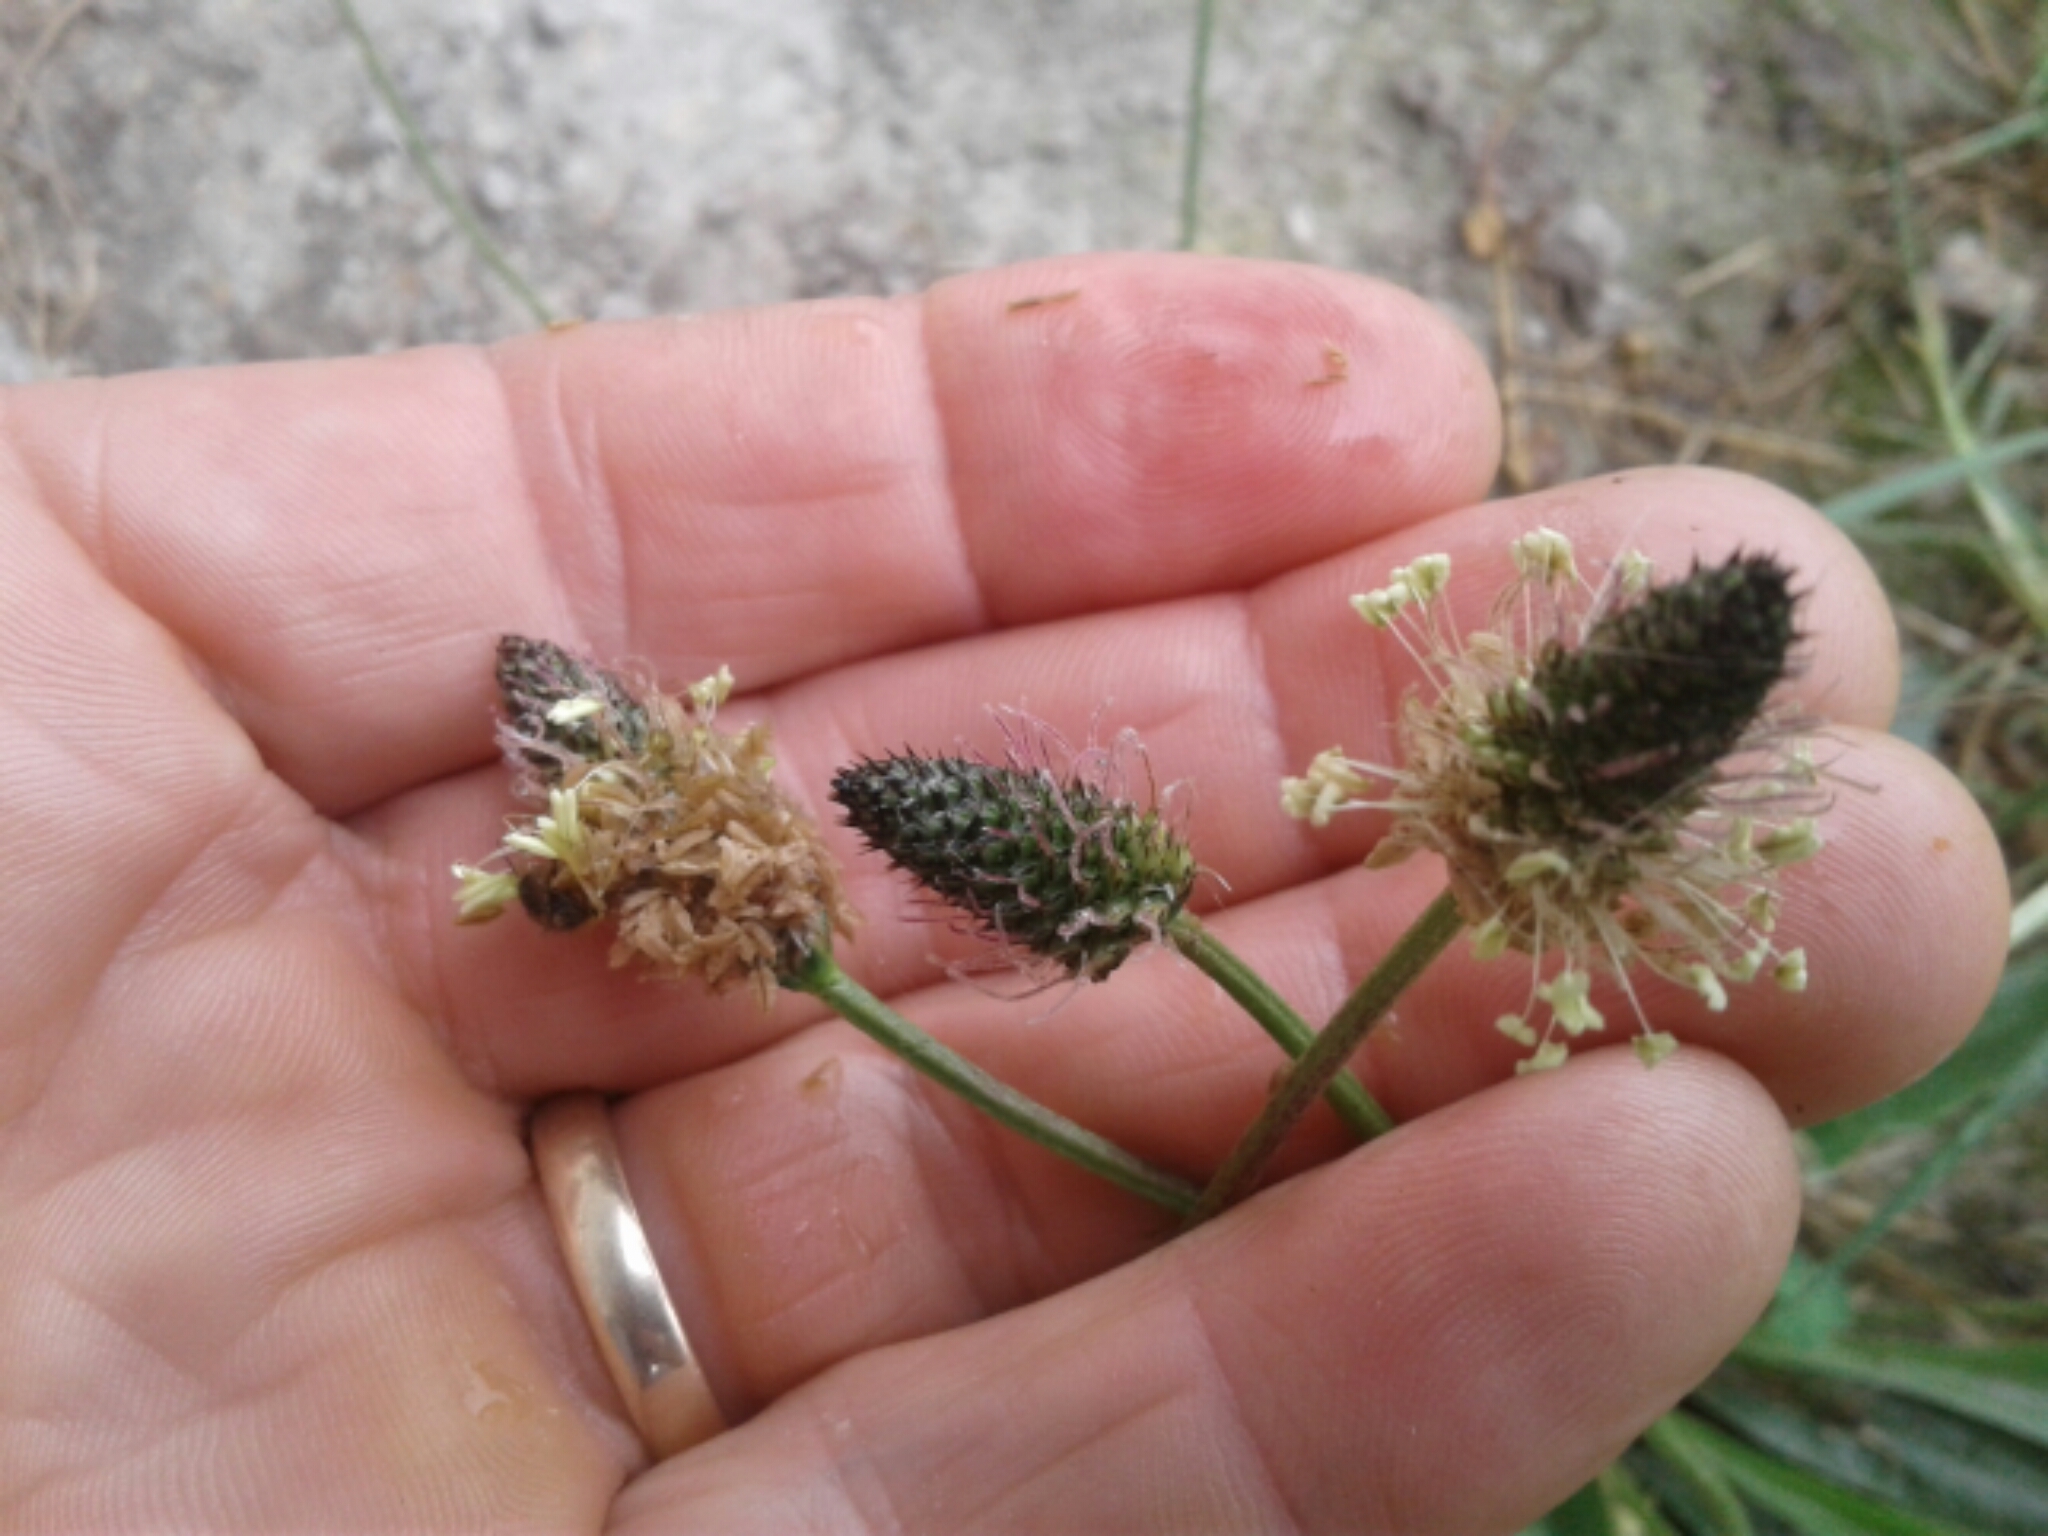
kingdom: Plantae
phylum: Tracheophyta
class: Magnoliopsida
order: Lamiales
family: Plantaginaceae
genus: Plantago
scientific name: Plantago lanceolata
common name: Ribwort plantain
